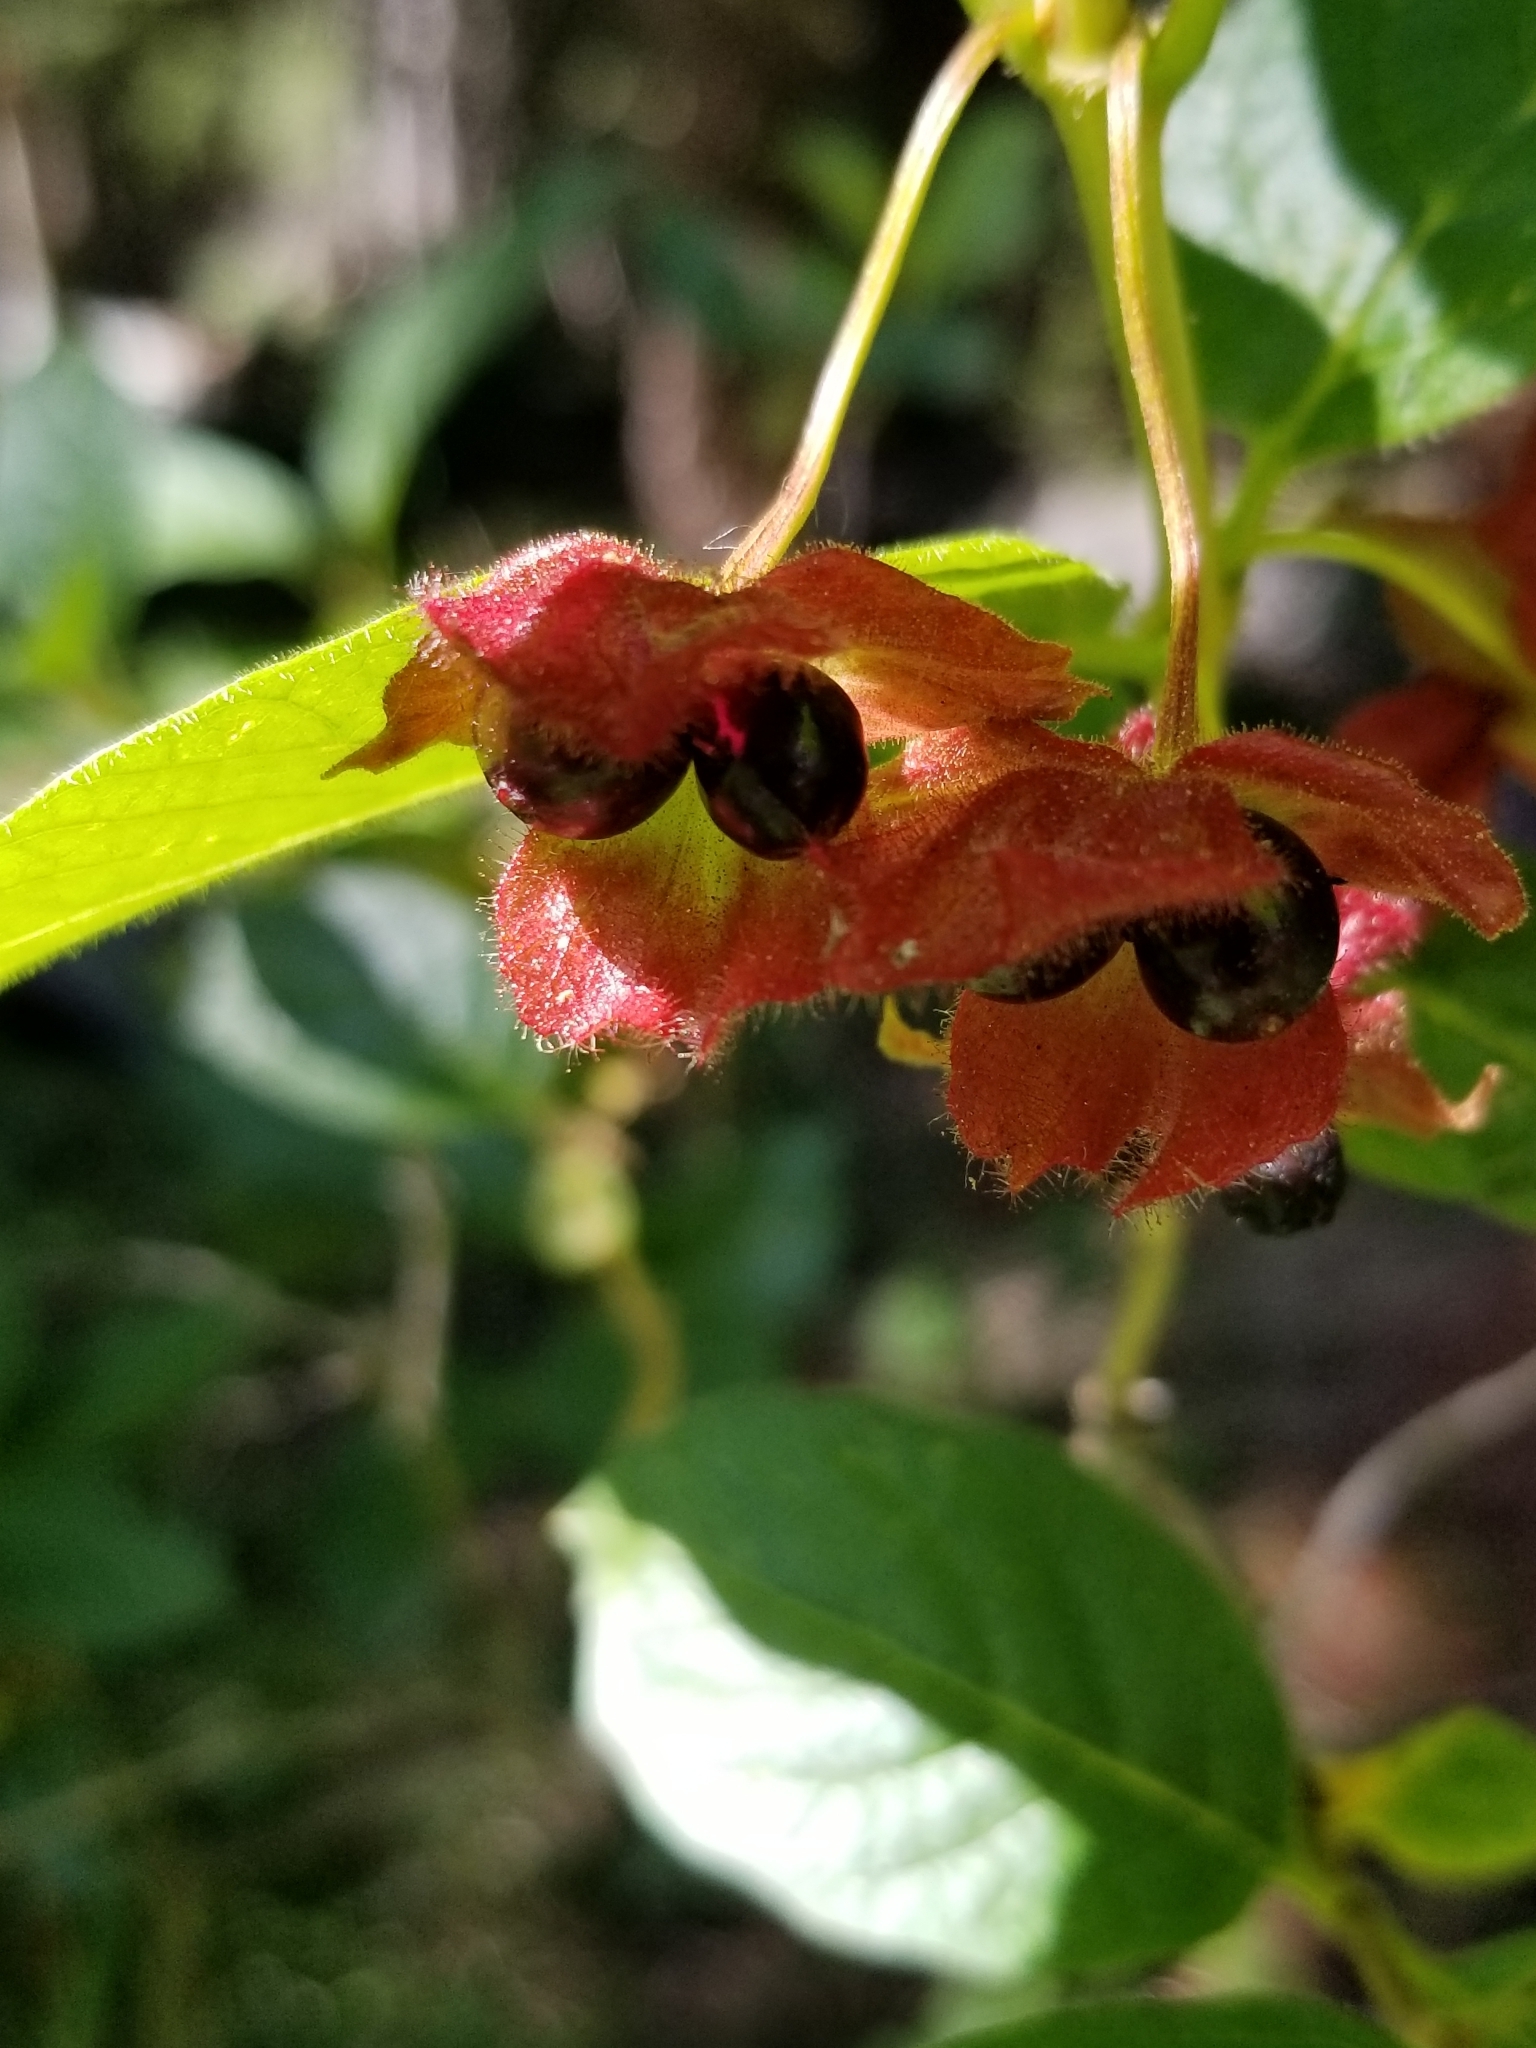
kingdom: Plantae
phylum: Tracheophyta
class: Magnoliopsida
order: Dipsacales
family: Caprifoliaceae
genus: Lonicera
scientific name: Lonicera involucrata
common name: Californian honeysuckle
